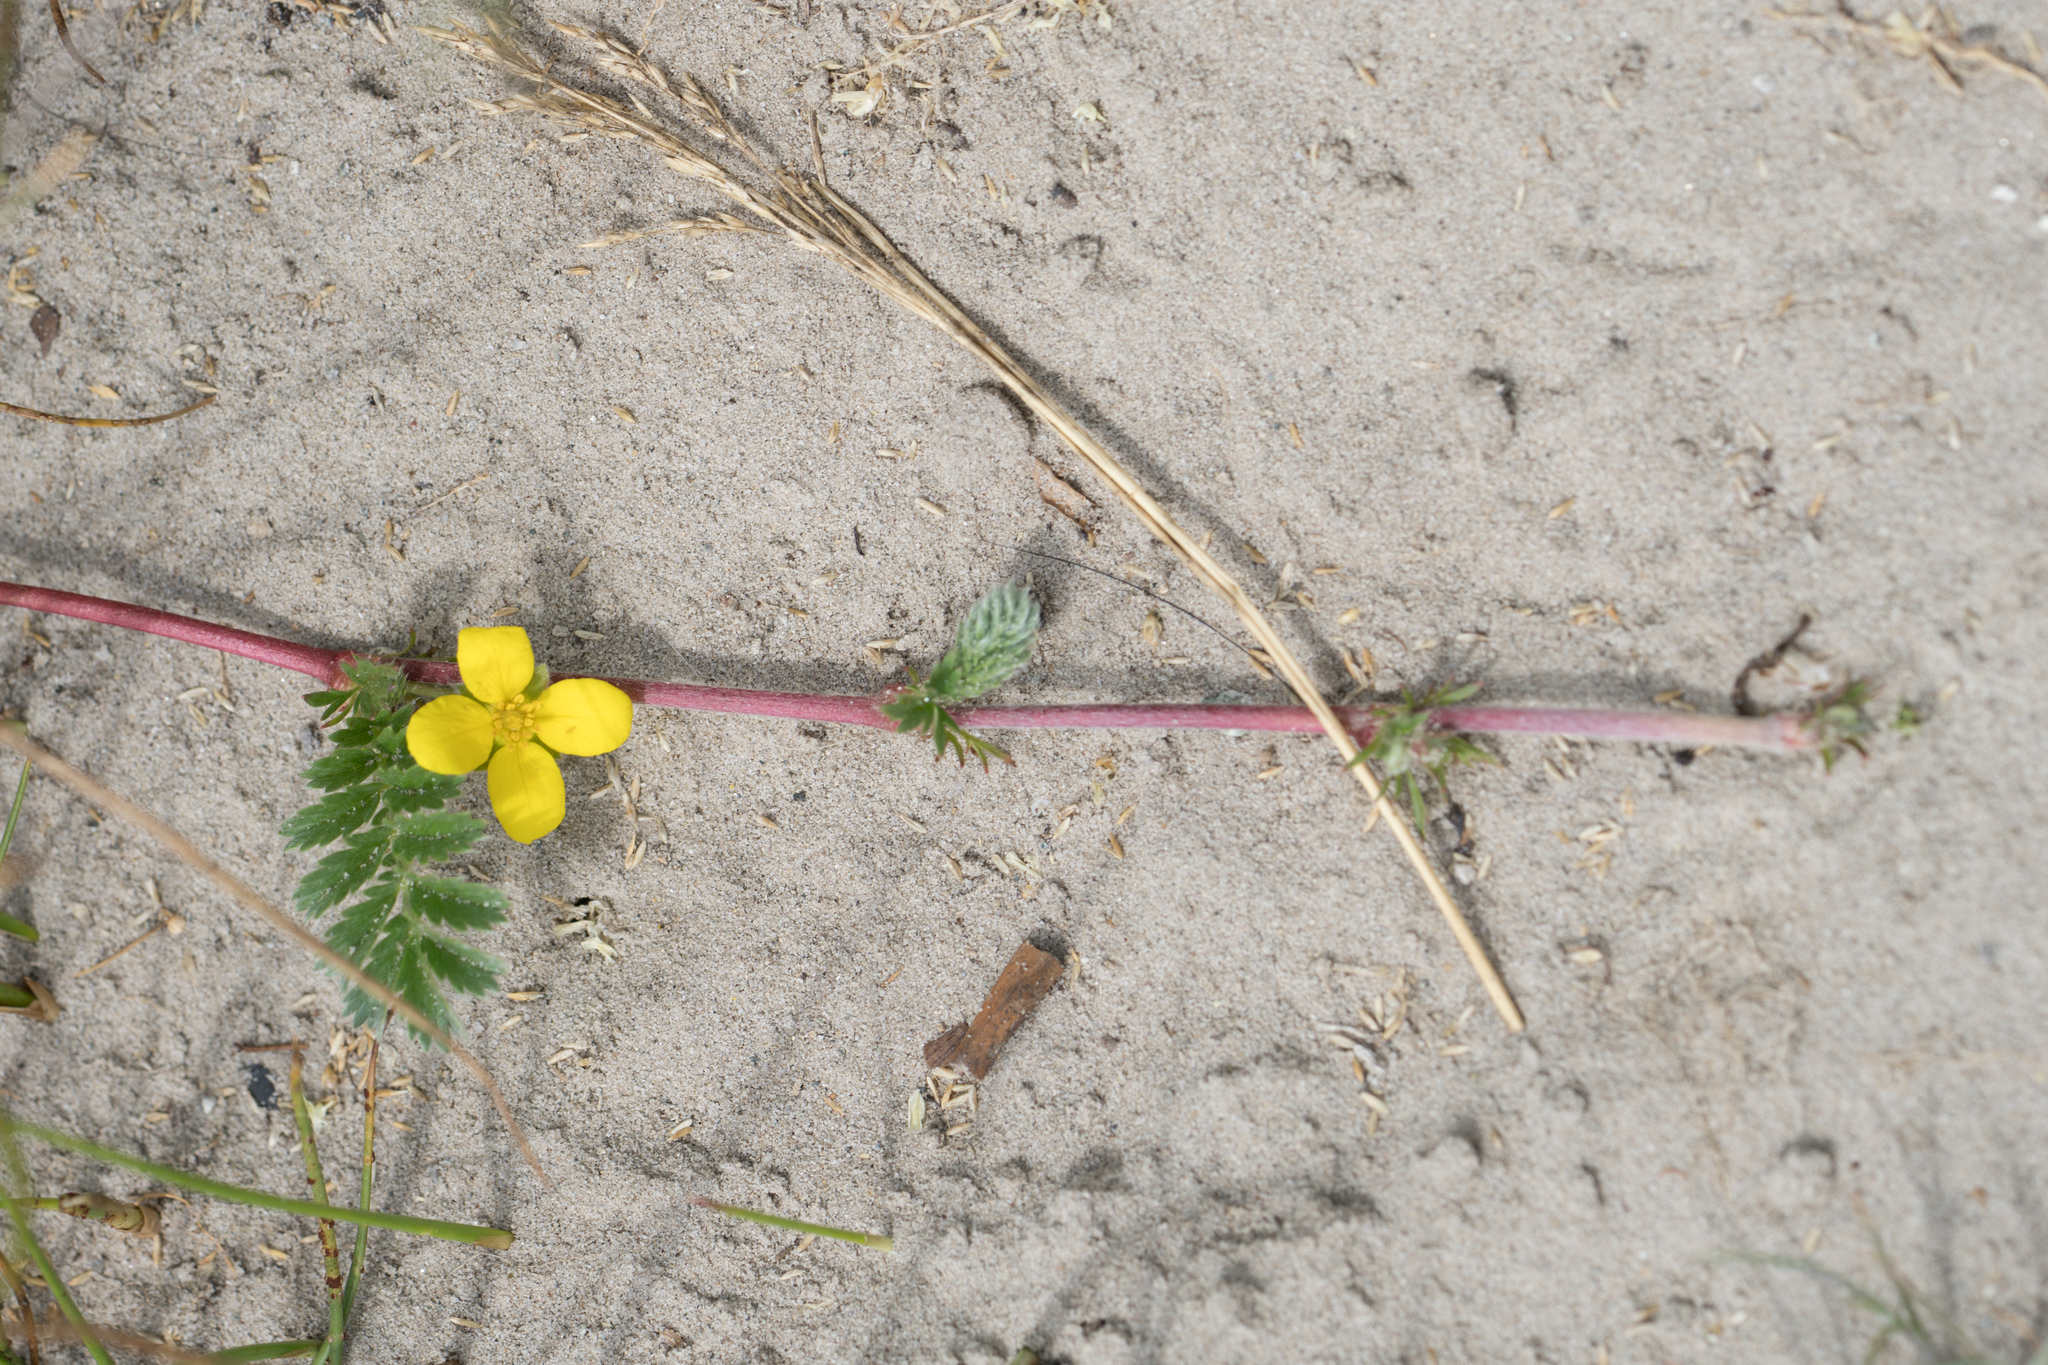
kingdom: Plantae
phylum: Tracheophyta
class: Magnoliopsida
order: Rosales
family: Rosaceae
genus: Argentina
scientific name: Argentina anserina
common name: Common silverweed
